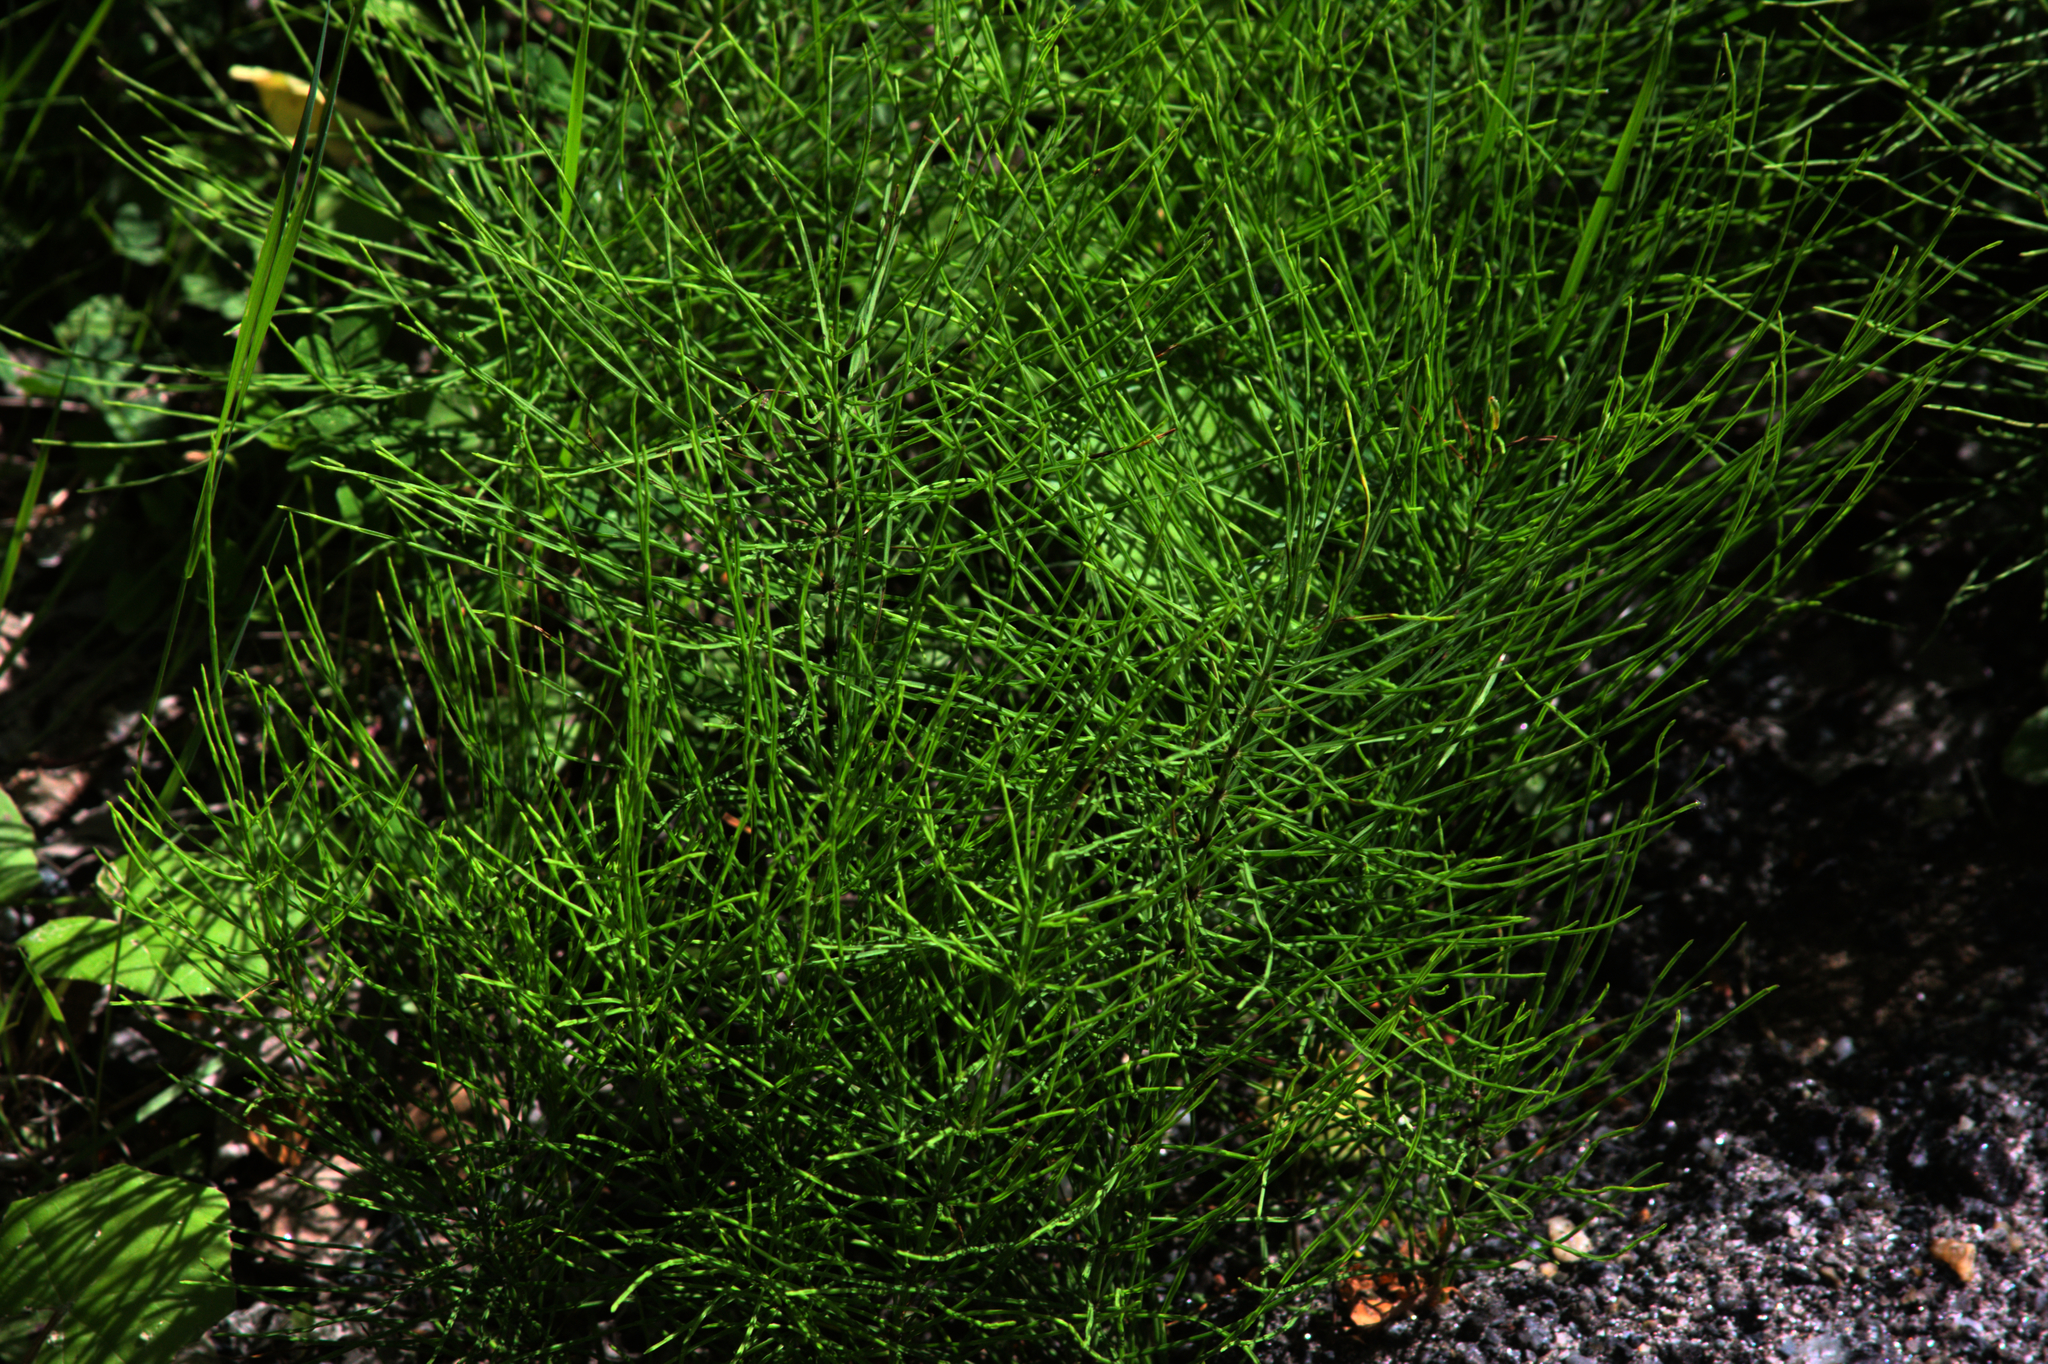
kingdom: Plantae
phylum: Tracheophyta
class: Polypodiopsida
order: Equisetales
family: Equisetaceae
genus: Equisetum
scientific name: Equisetum arvense
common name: Field horsetail
